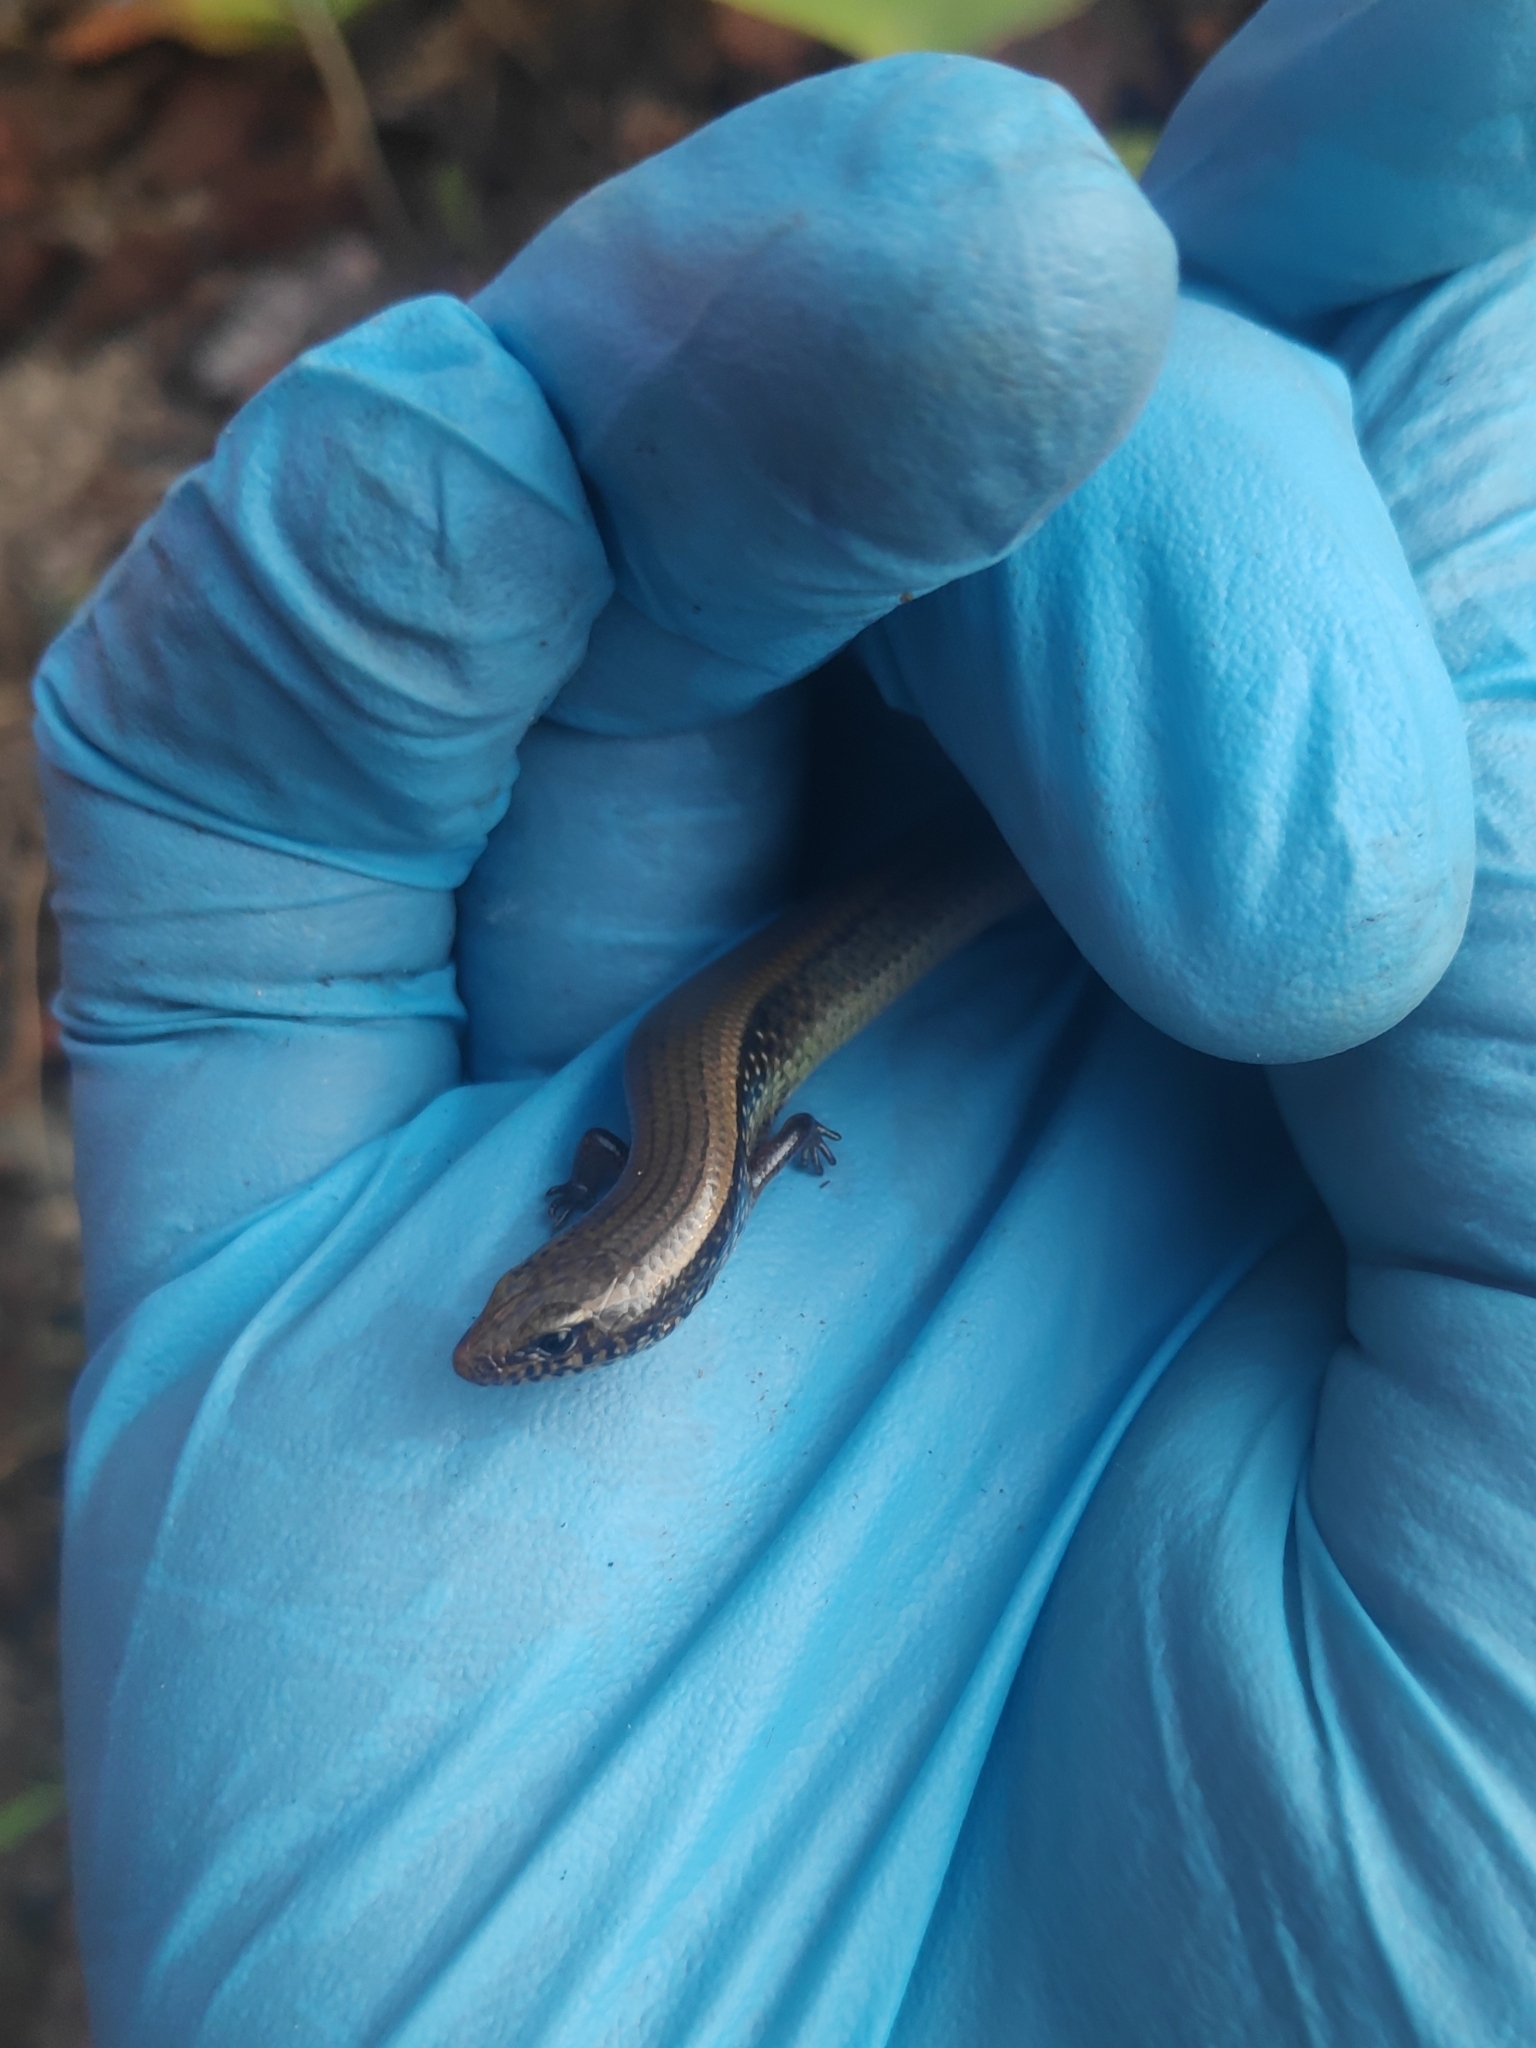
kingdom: Animalia
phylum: Chordata
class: Squamata
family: Scincidae
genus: Riopa
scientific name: Riopa albopunctata
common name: White-spotted supple skink
